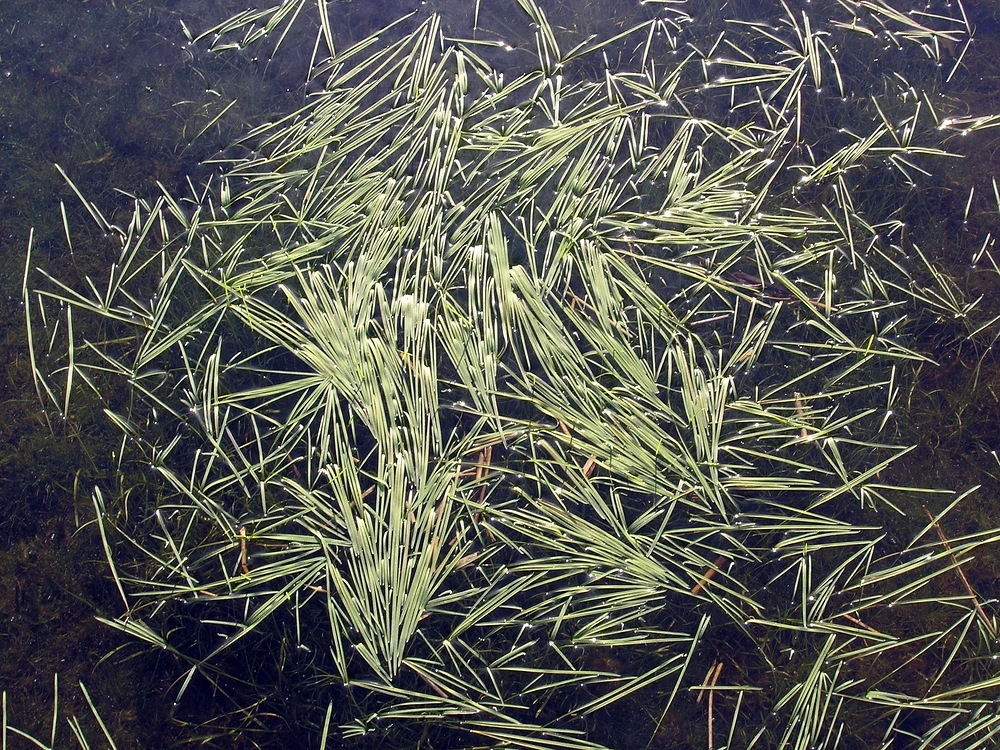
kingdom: Plantae
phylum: Tracheophyta
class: Liliopsida
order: Poales
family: Poaceae
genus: Glyceria
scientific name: Glyceria fluitans
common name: Floating sweet-grass
